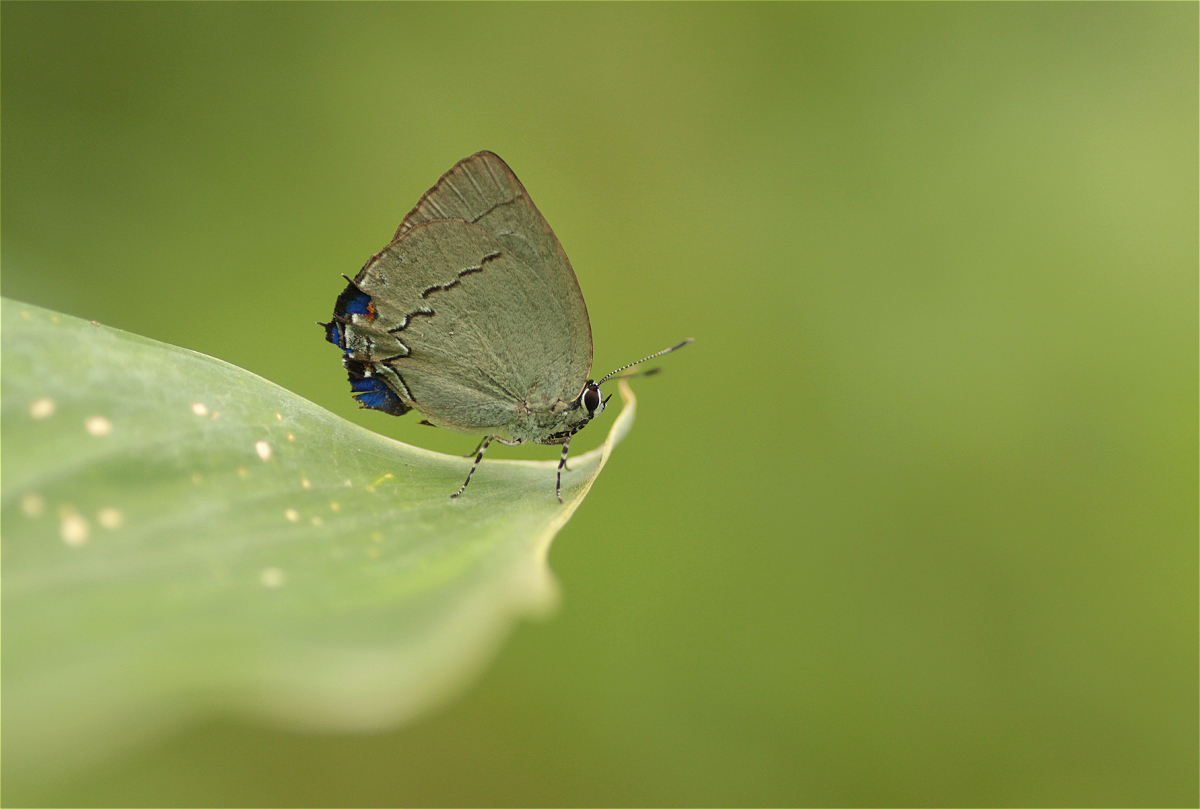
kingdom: Animalia
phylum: Arthropoda
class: Insecta
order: Lepidoptera
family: Lycaenidae
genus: Thecla
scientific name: Thecla lydus
